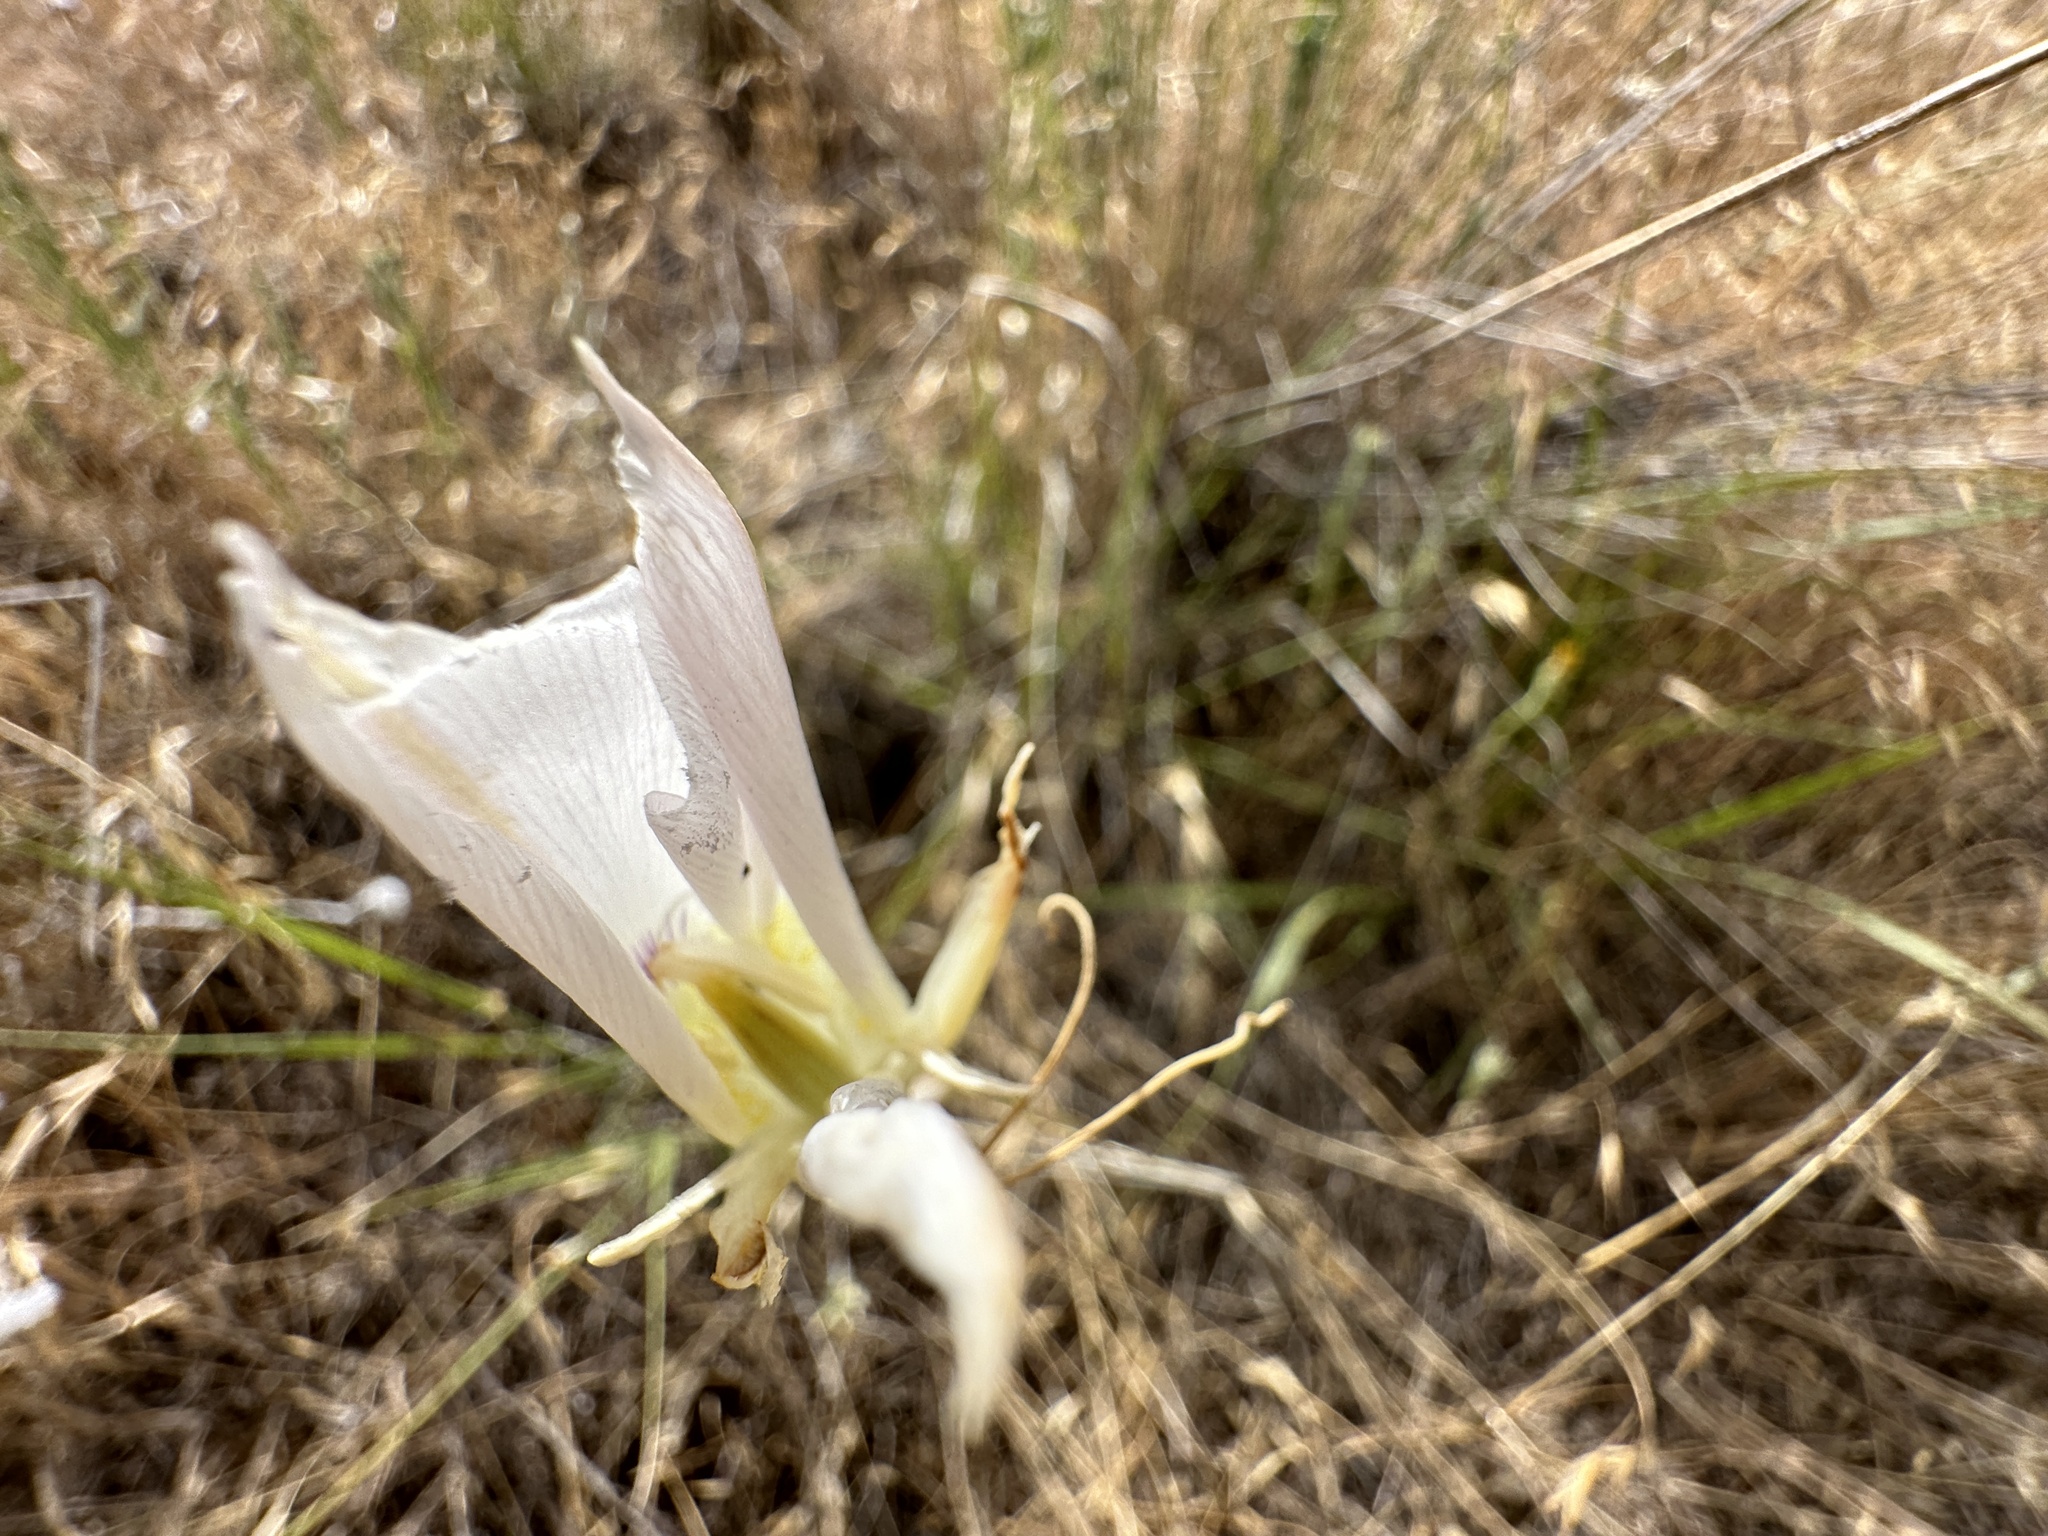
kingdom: Plantae
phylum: Tracheophyta
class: Liliopsida
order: Liliales
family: Liliaceae
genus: Calochortus
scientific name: Calochortus macrocarpus
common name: Green-band mariposa lily
